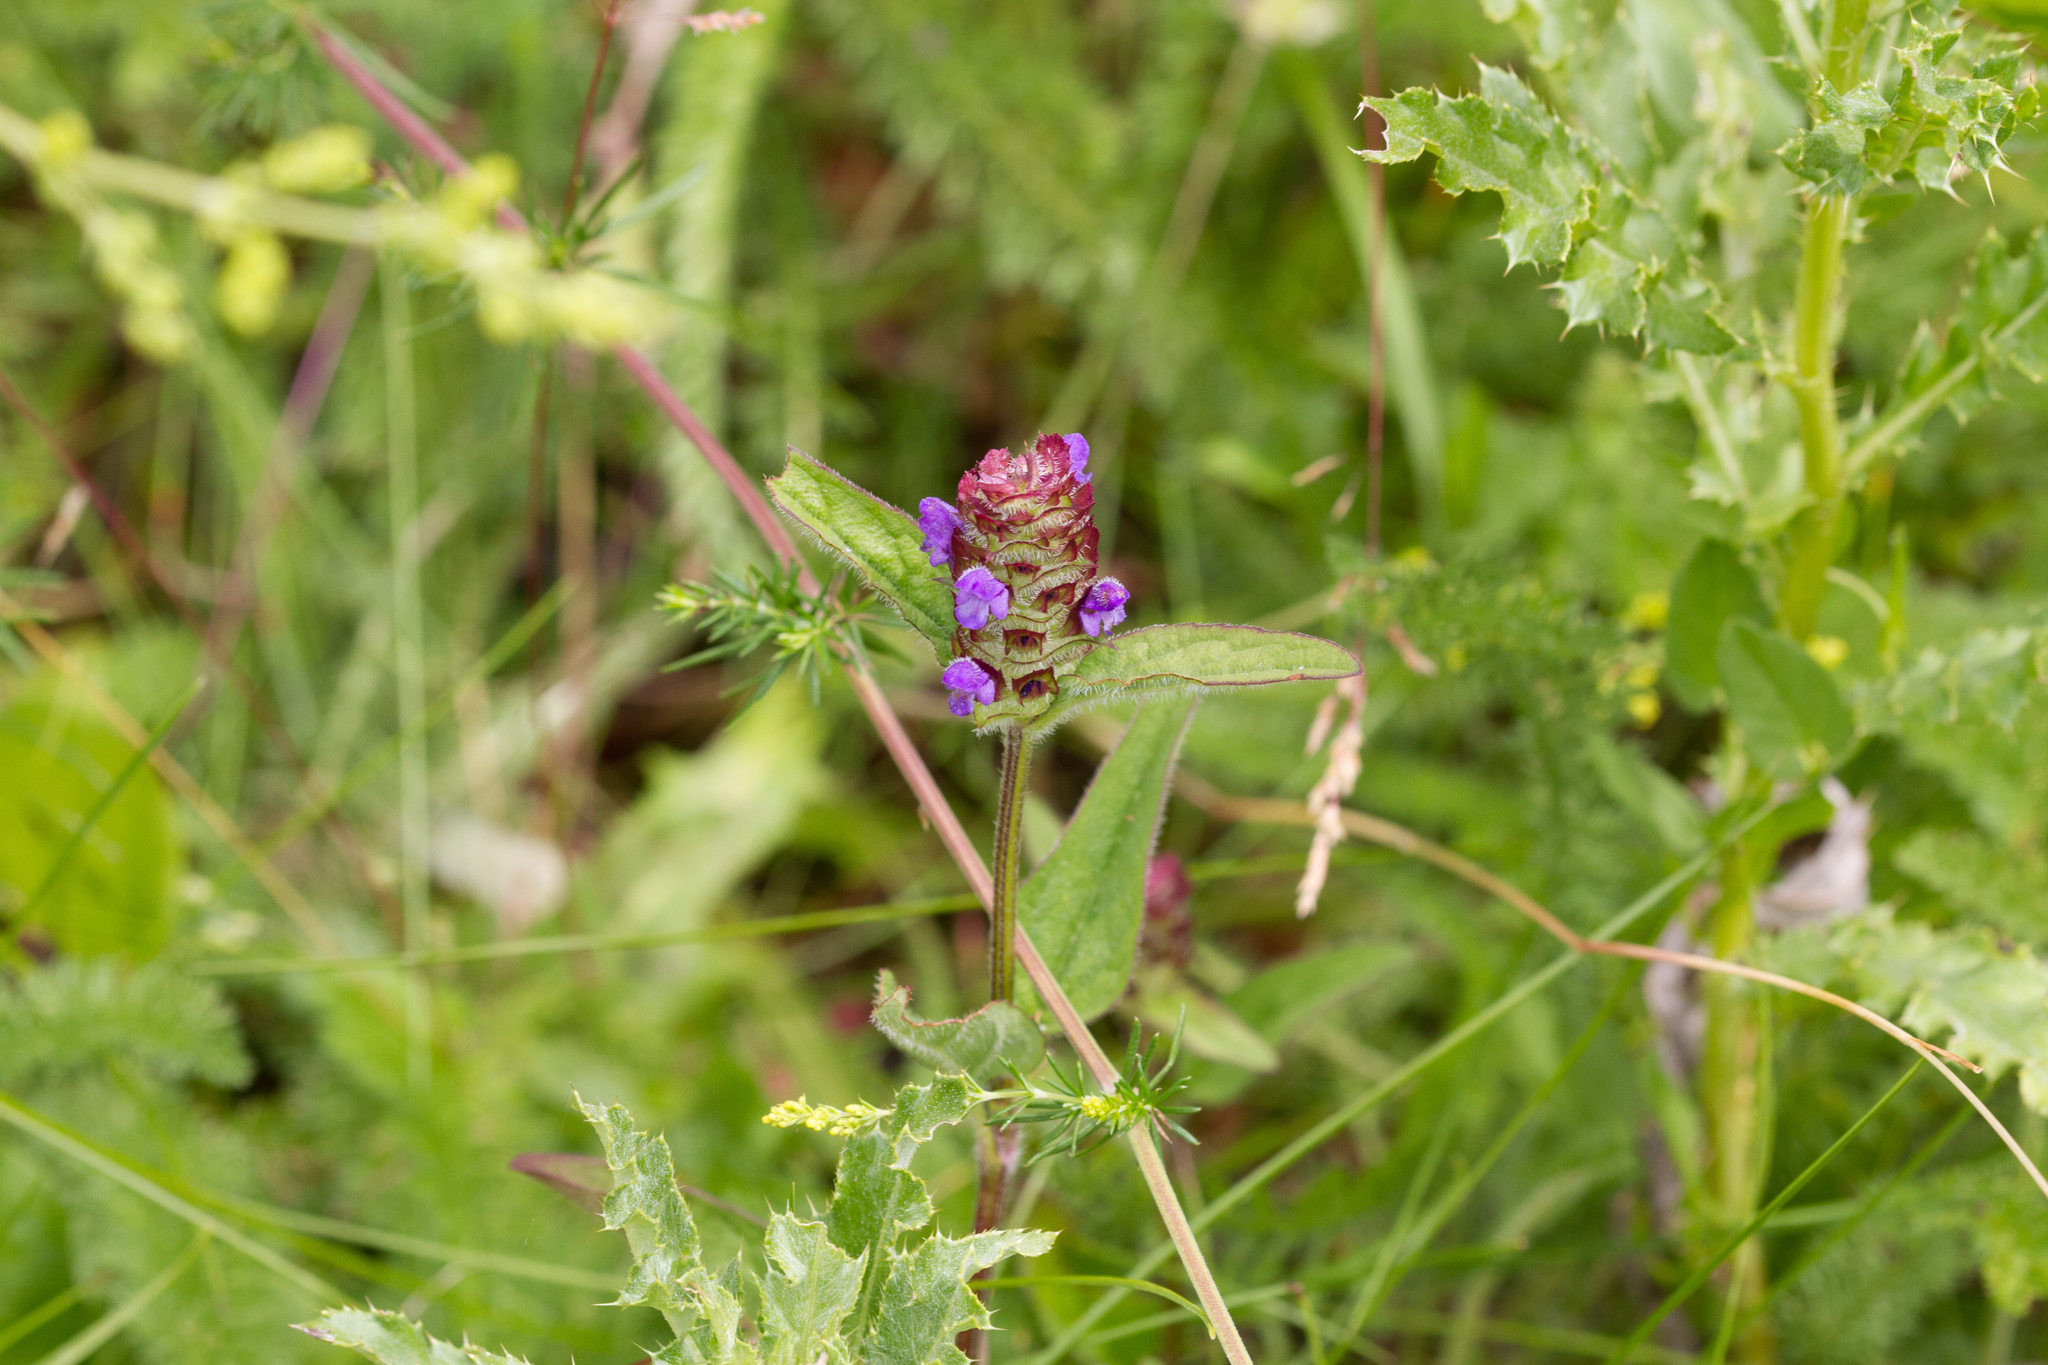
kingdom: Plantae
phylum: Tracheophyta
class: Magnoliopsida
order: Lamiales
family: Lamiaceae
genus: Prunella
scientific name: Prunella grandiflora
